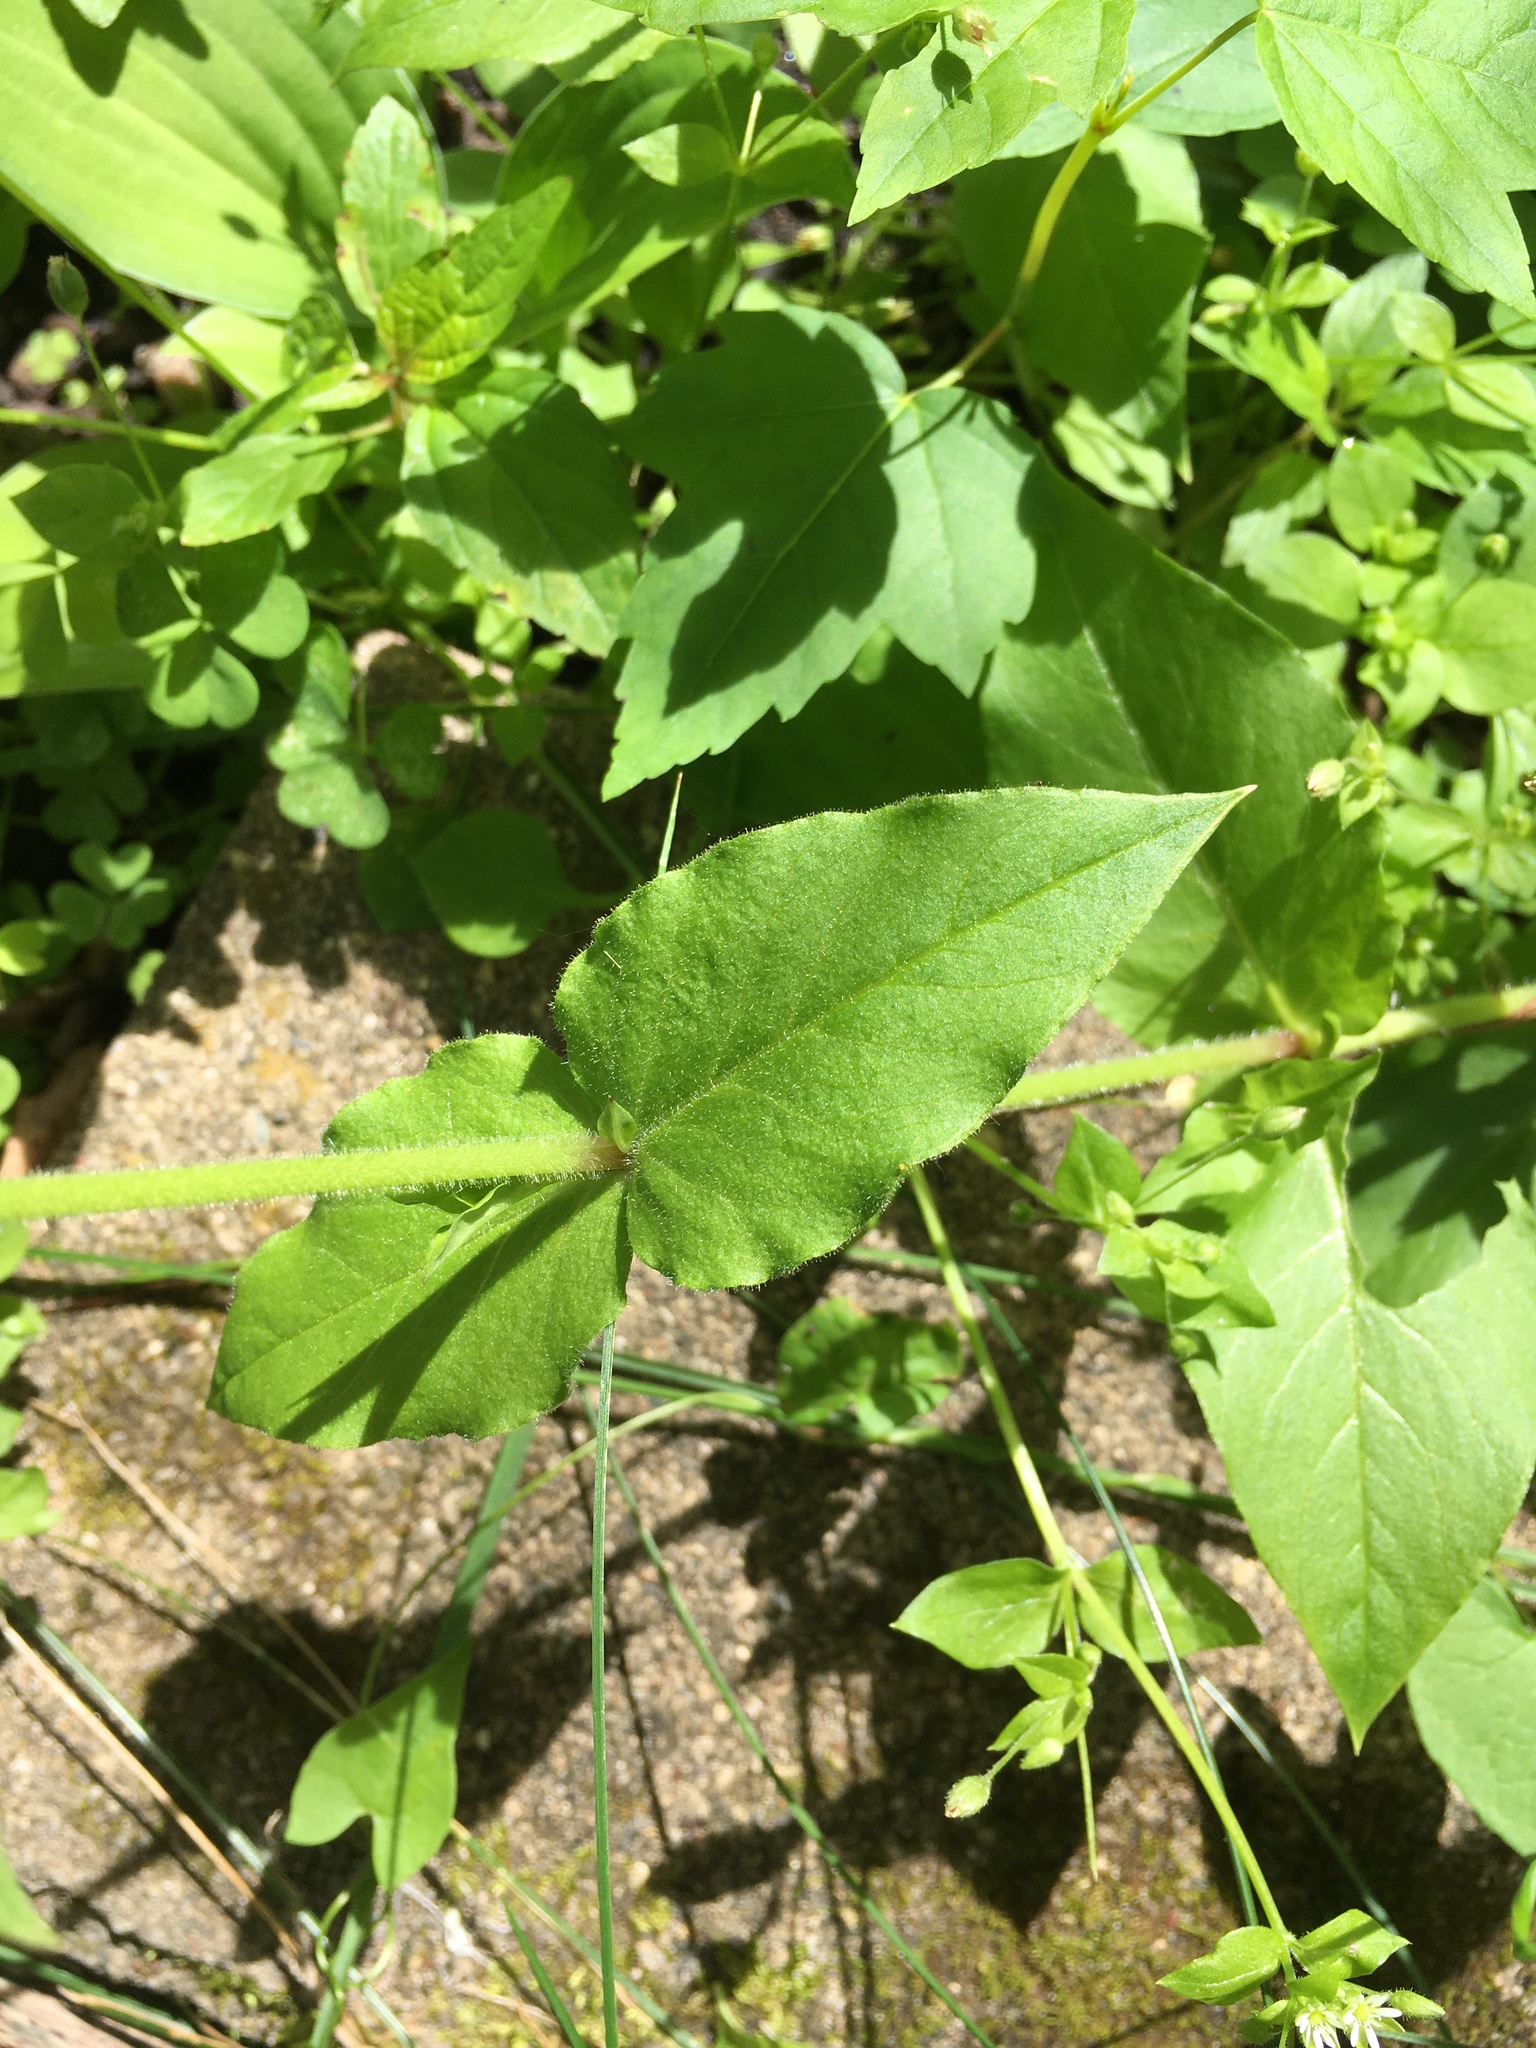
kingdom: Plantae
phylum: Tracheophyta
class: Magnoliopsida
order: Caryophyllales
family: Caryophyllaceae
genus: Stellaria
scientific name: Stellaria aquatica
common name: Water chickweed
